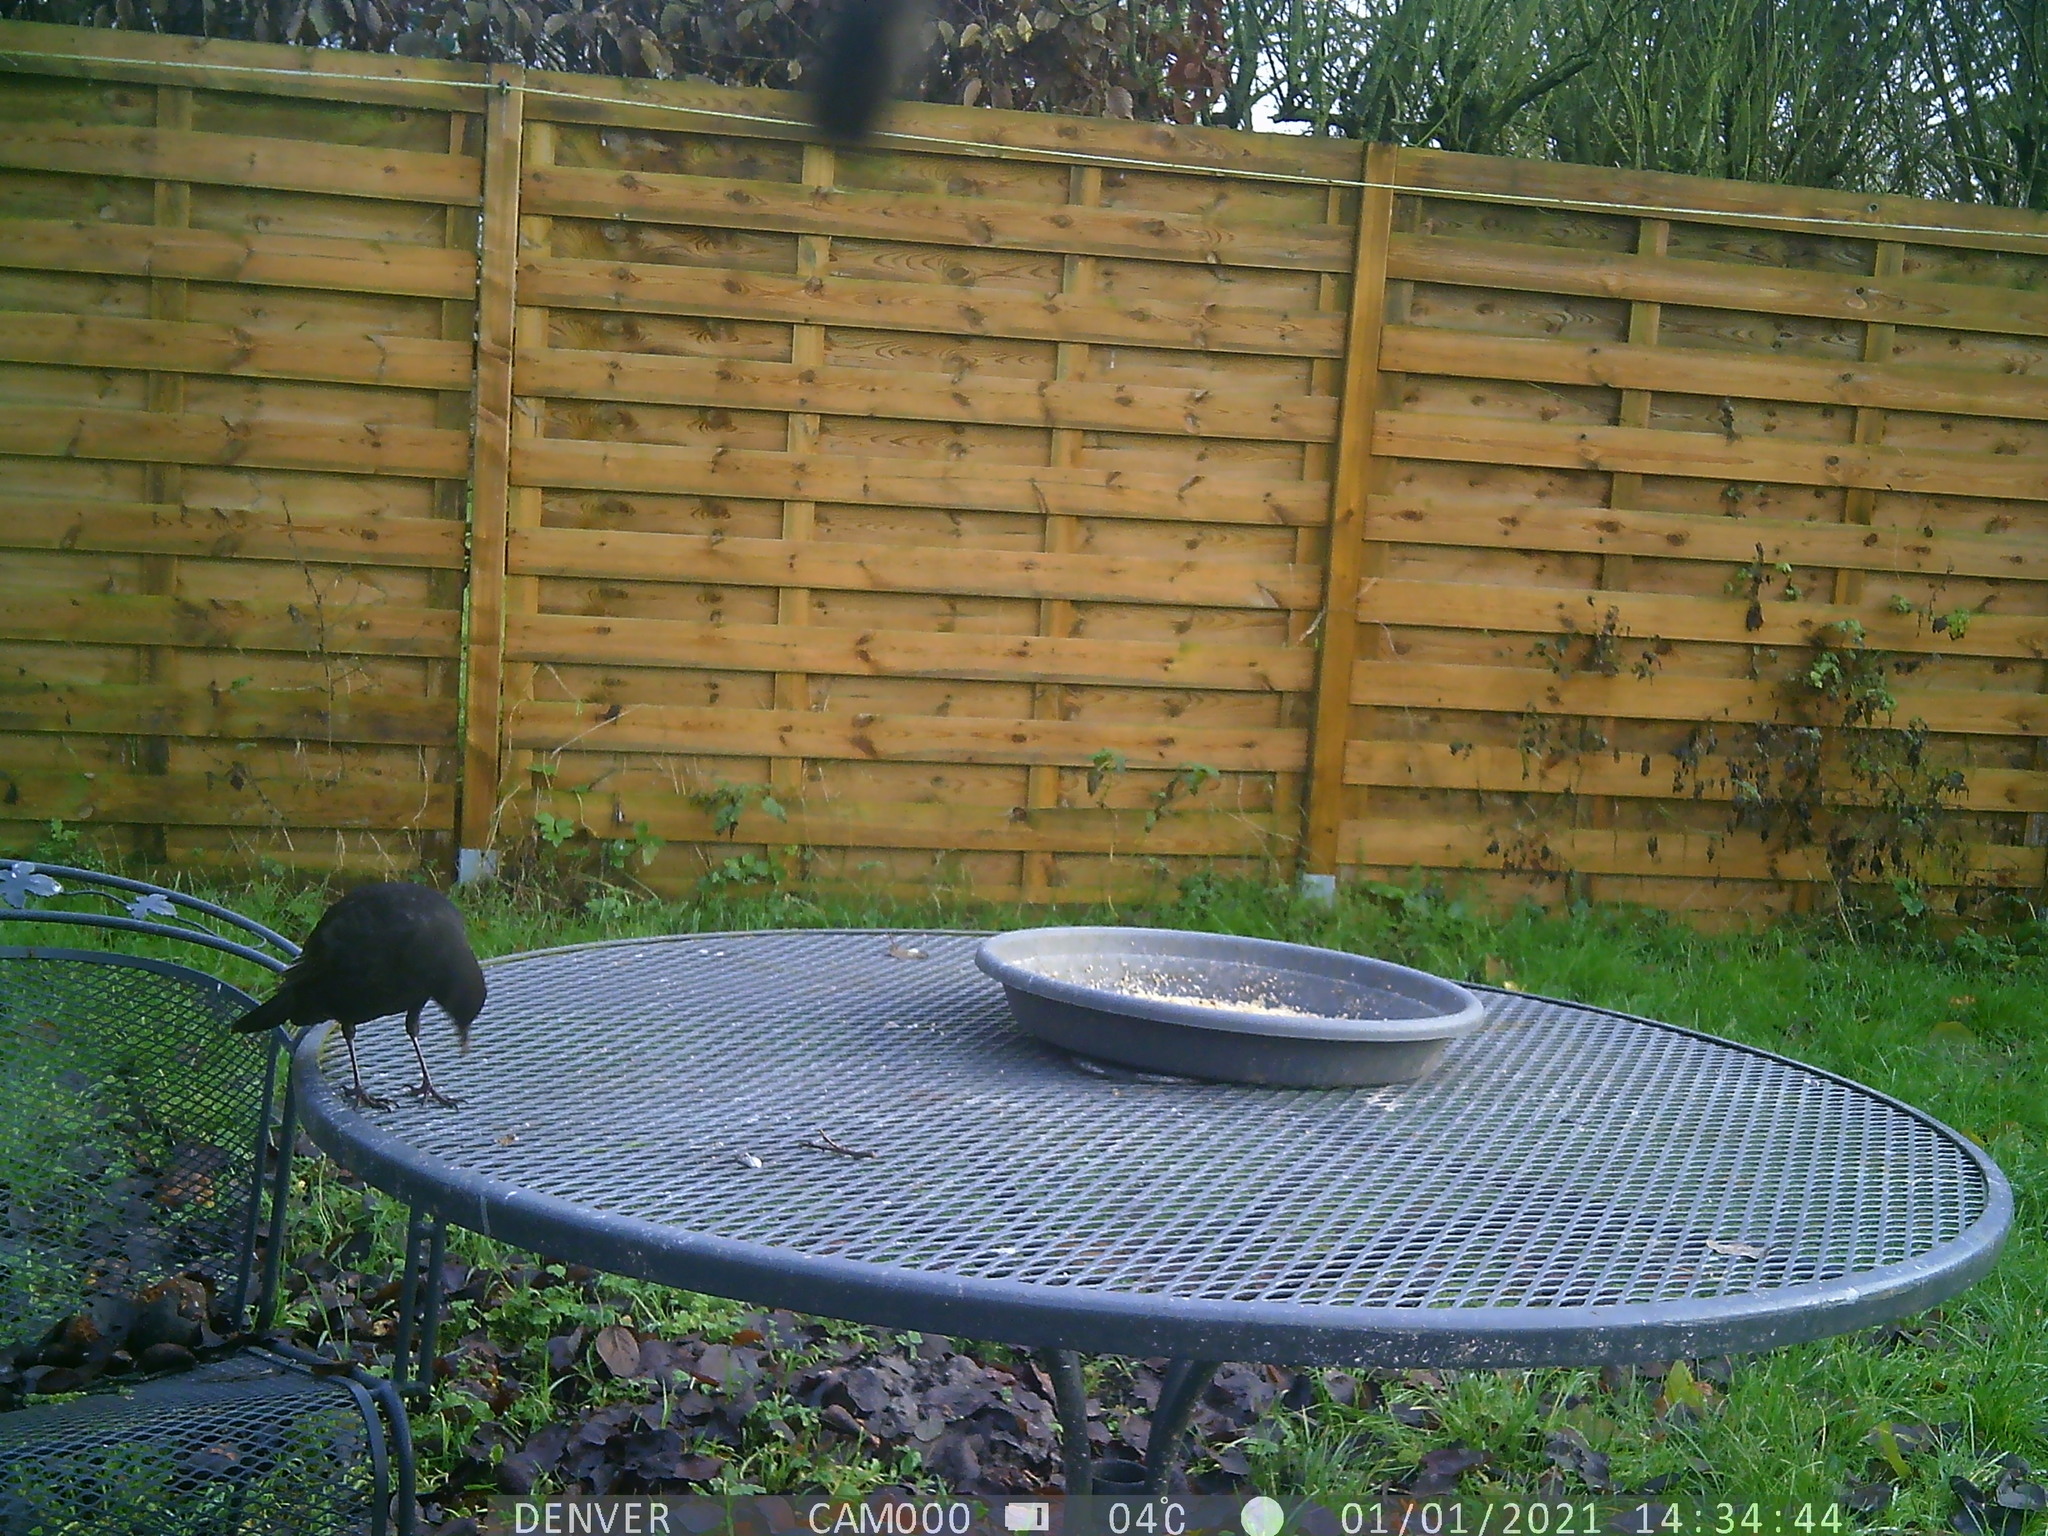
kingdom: Animalia
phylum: Chordata
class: Aves
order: Passeriformes
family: Turdidae
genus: Turdus
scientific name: Turdus merula
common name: Common blackbird
